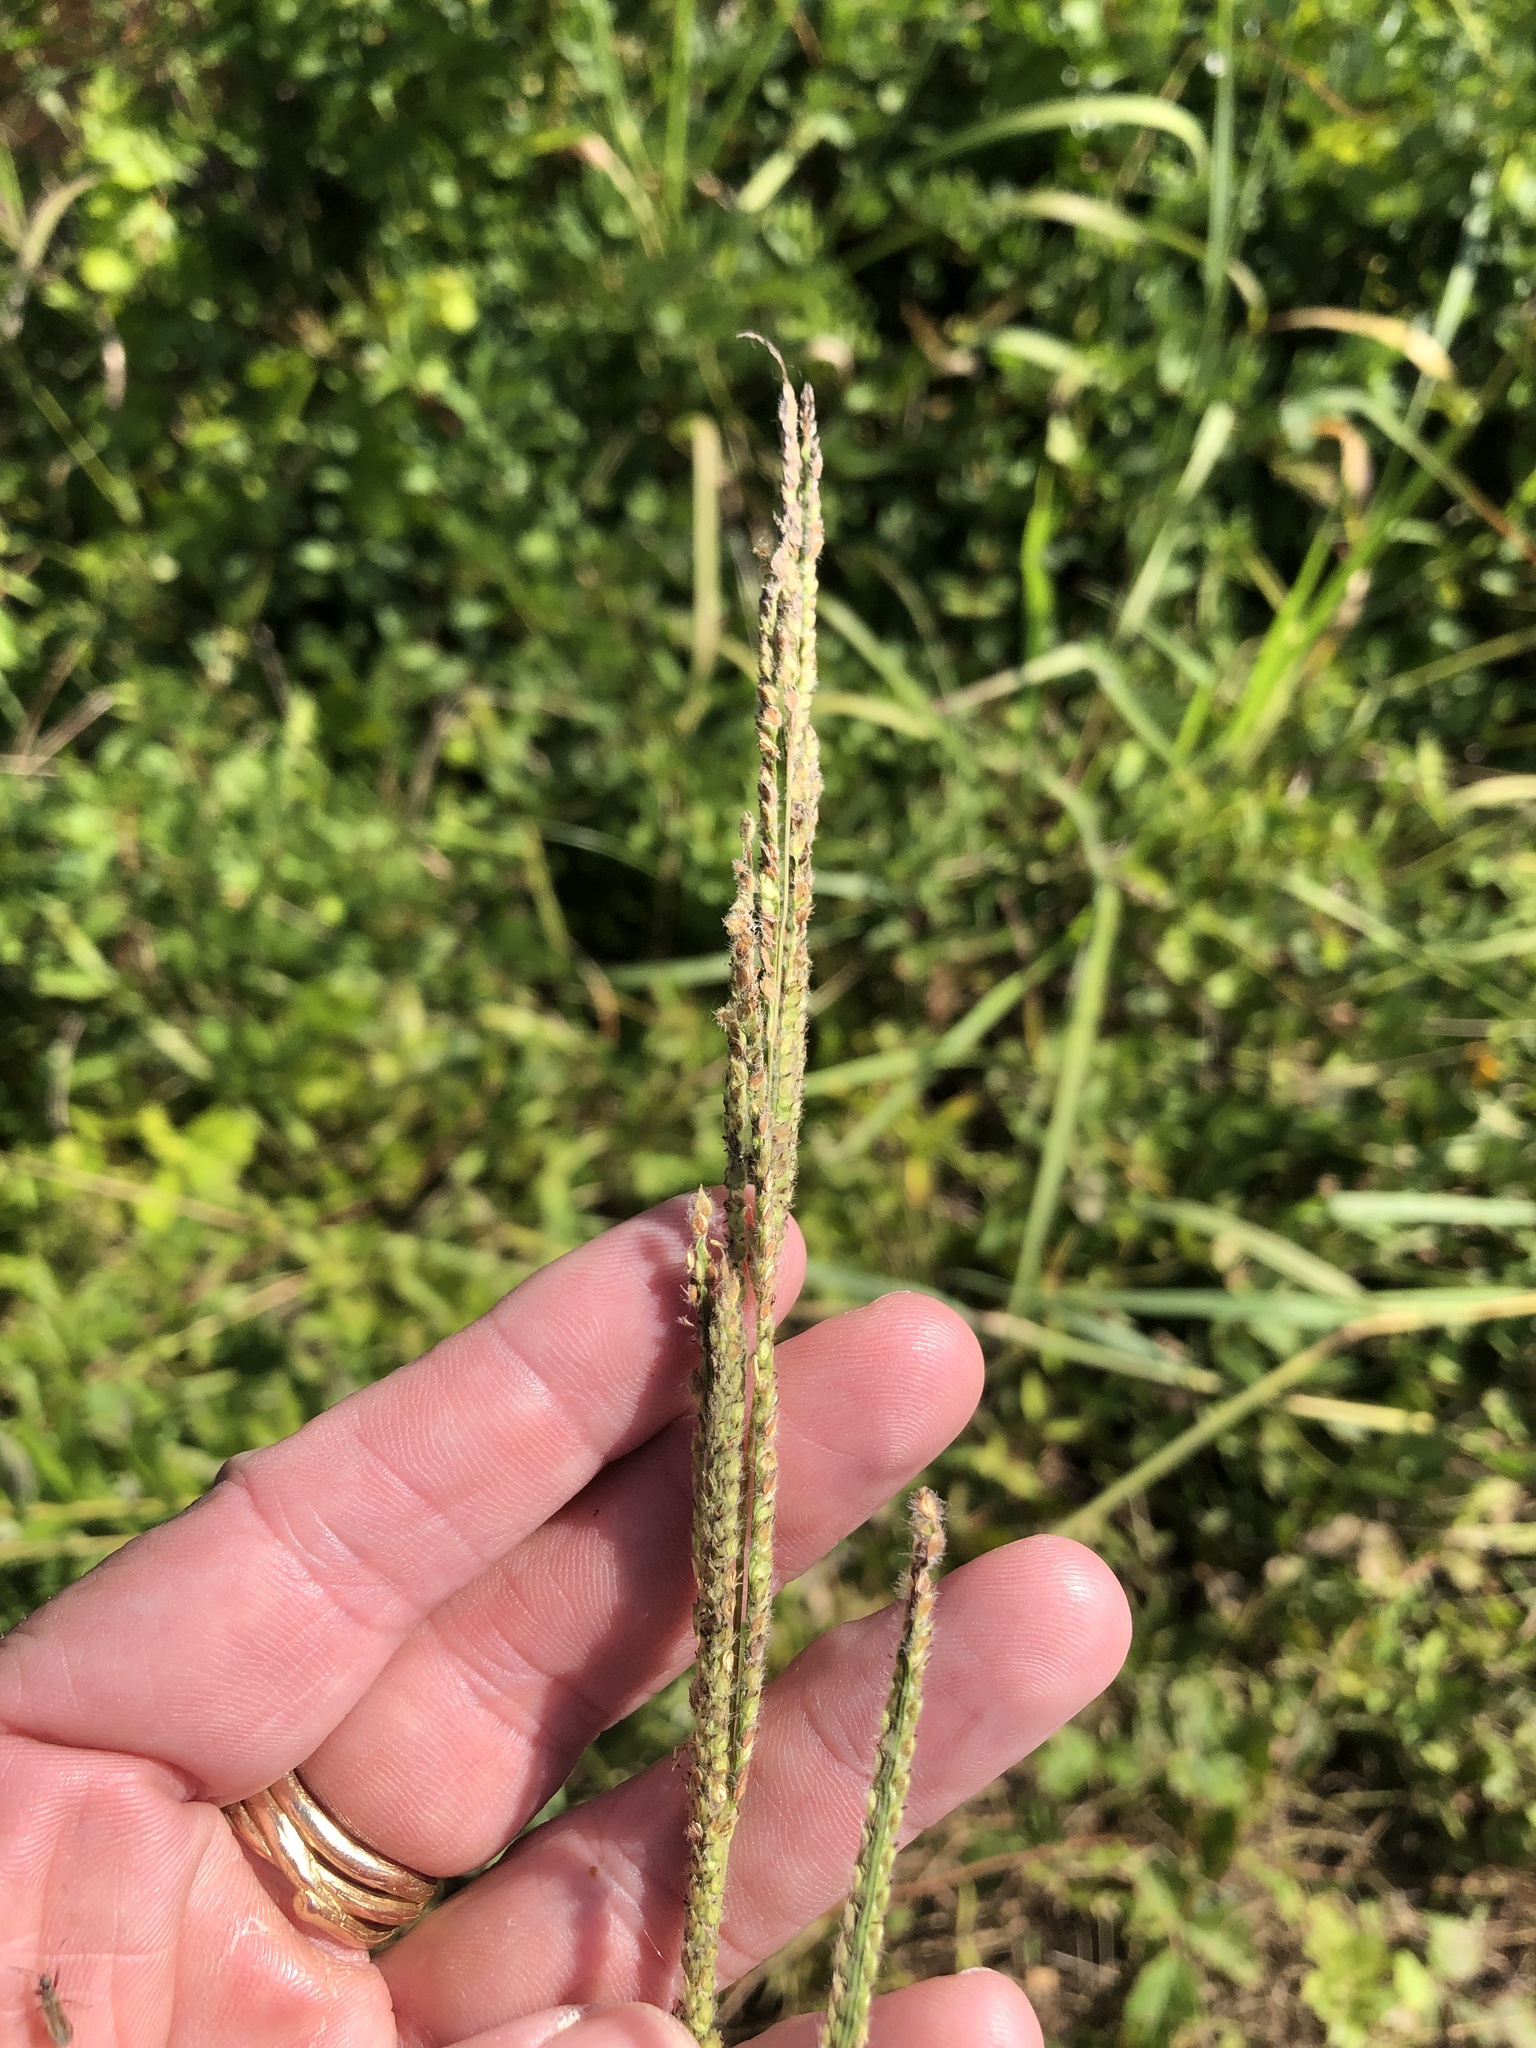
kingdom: Plantae
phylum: Tracheophyta
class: Liliopsida
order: Poales
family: Poaceae
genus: Paspalum
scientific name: Paspalum urvillei
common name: Vasey's grass
